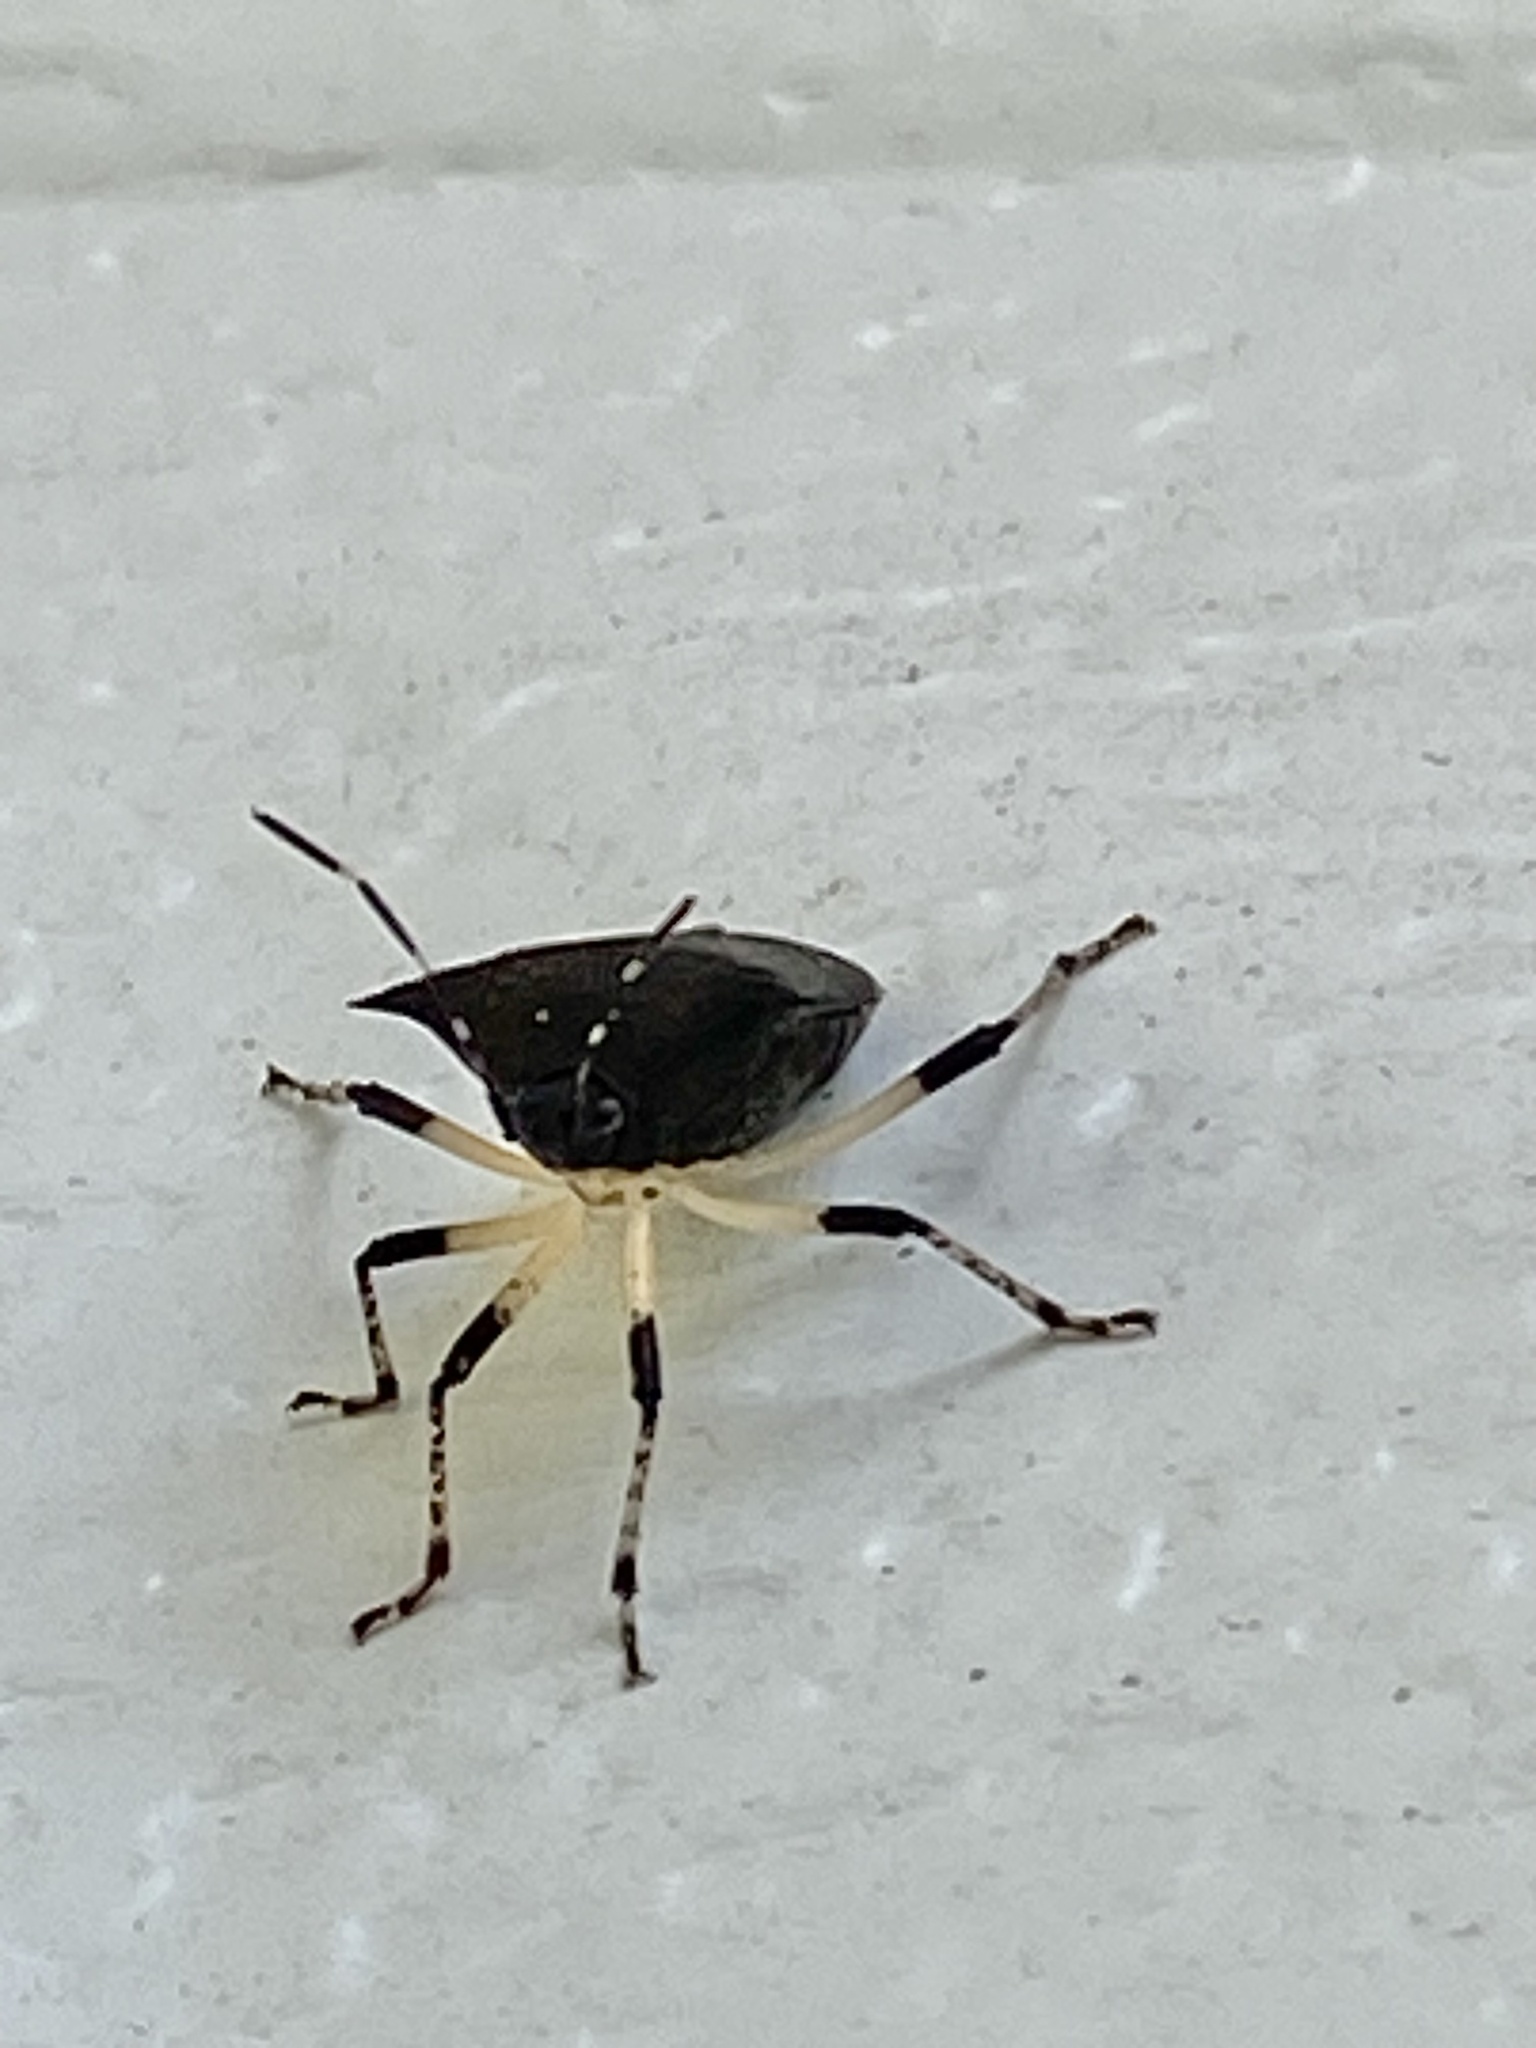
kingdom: Animalia
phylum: Arthropoda
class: Insecta
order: Hemiptera
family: Pentatomidae
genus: Proxys
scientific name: Proxys punctulatus
